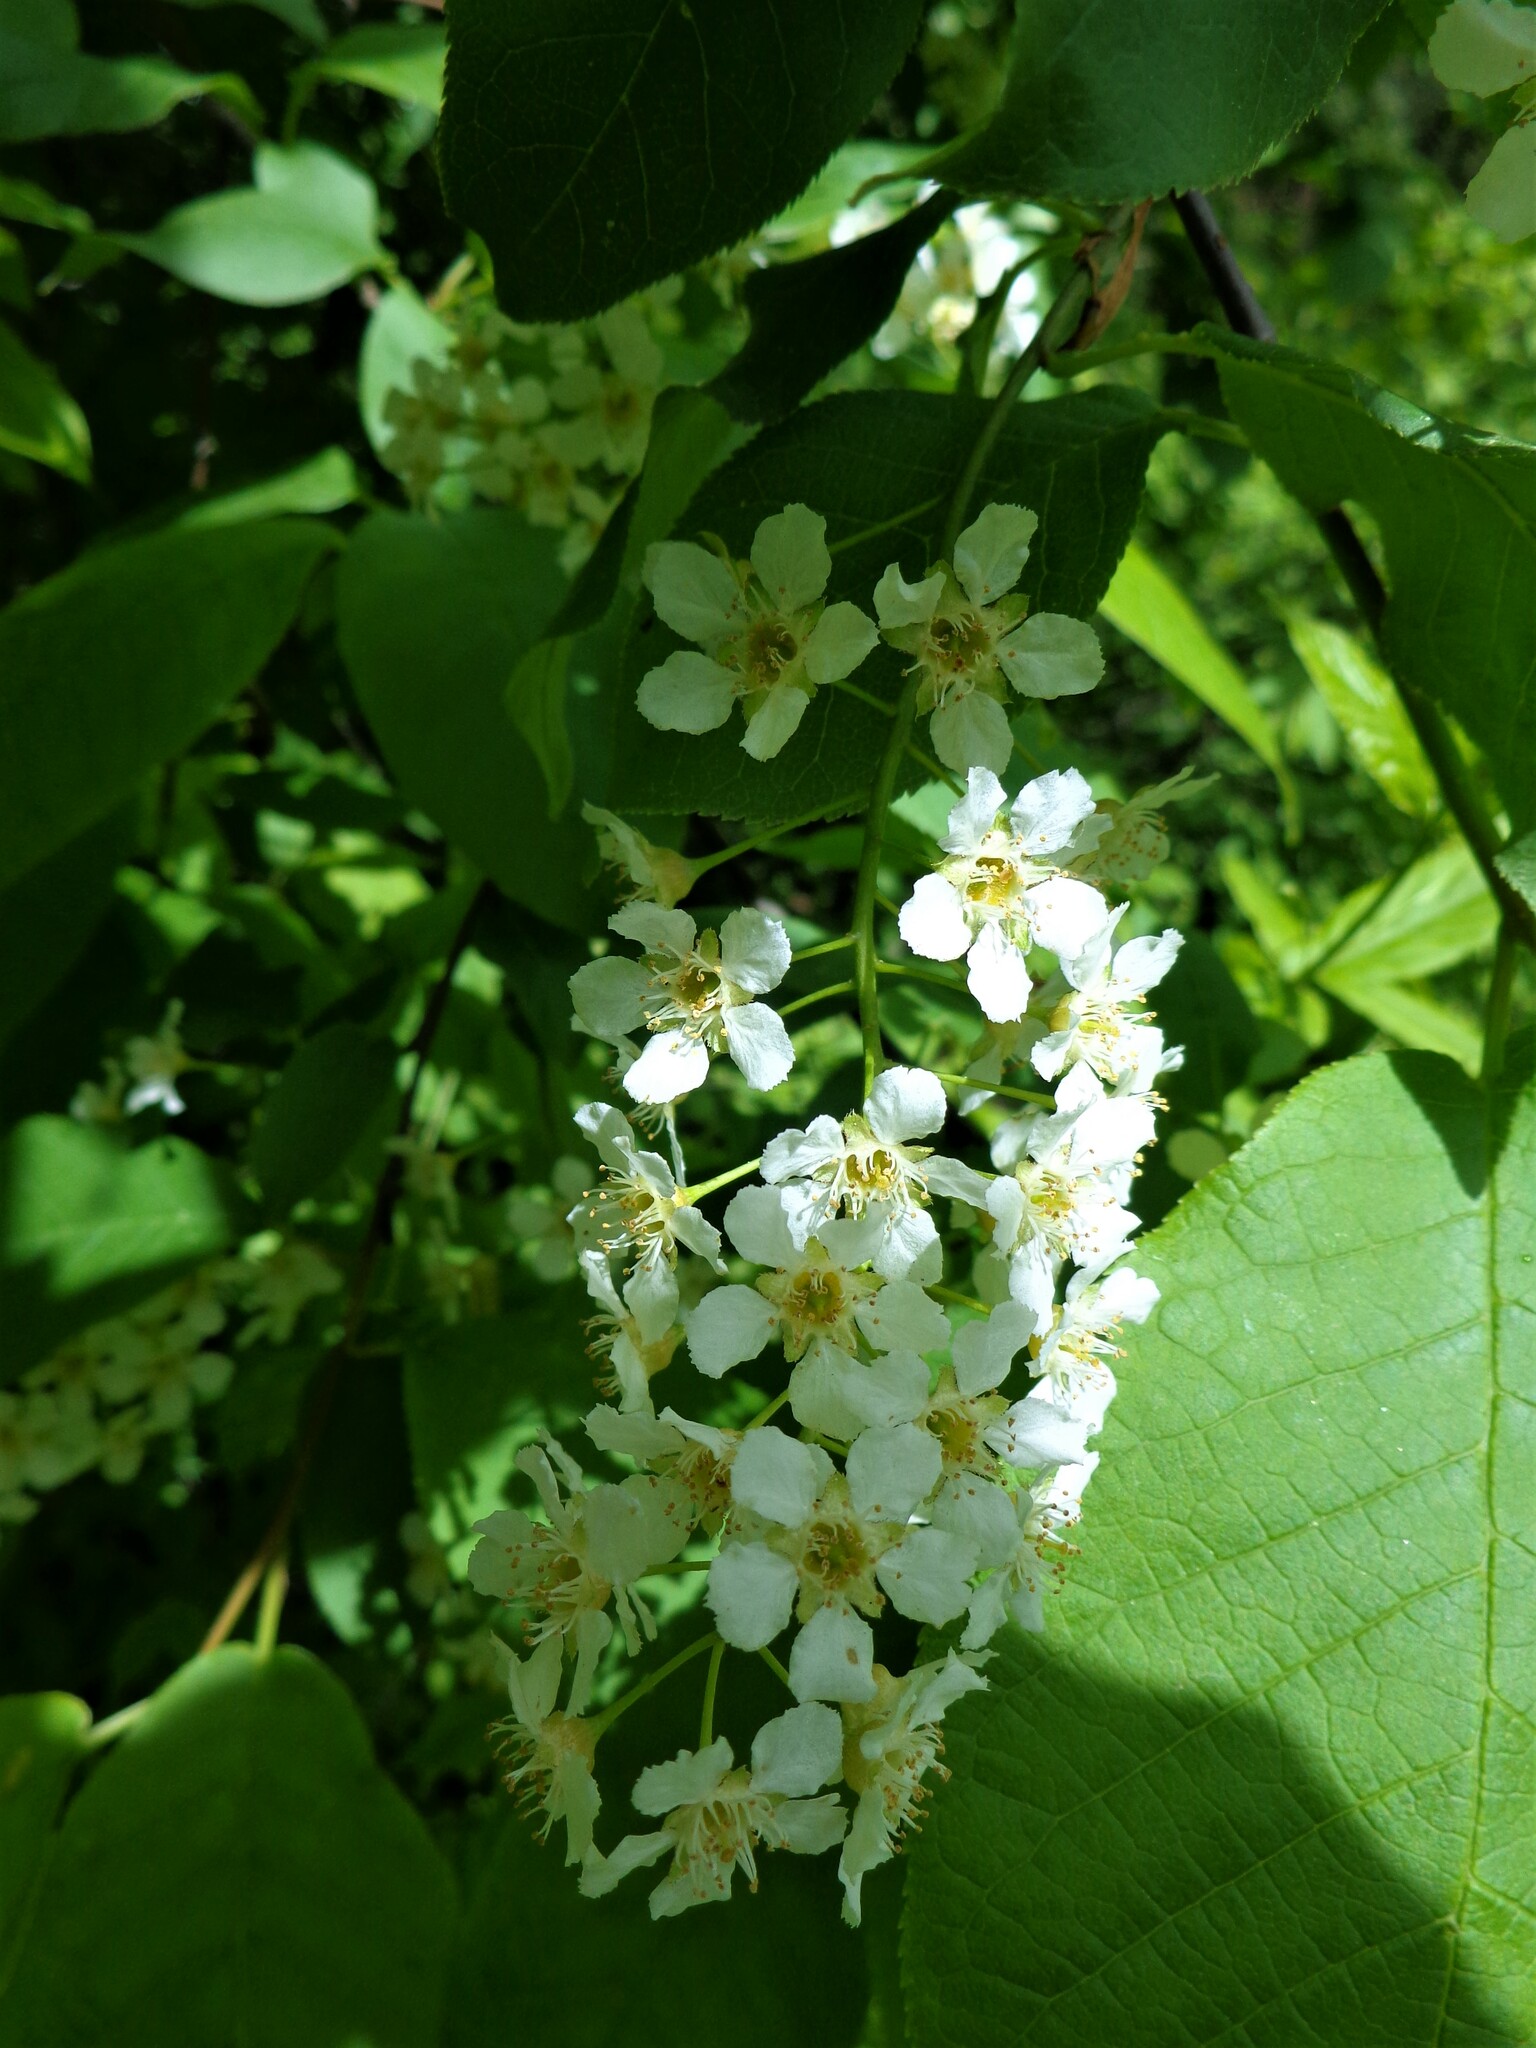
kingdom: Plantae
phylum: Tracheophyta
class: Magnoliopsida
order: Rosales
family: Rosaceae
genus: Prunus
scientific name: Prunus padus
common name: Bird cherry
